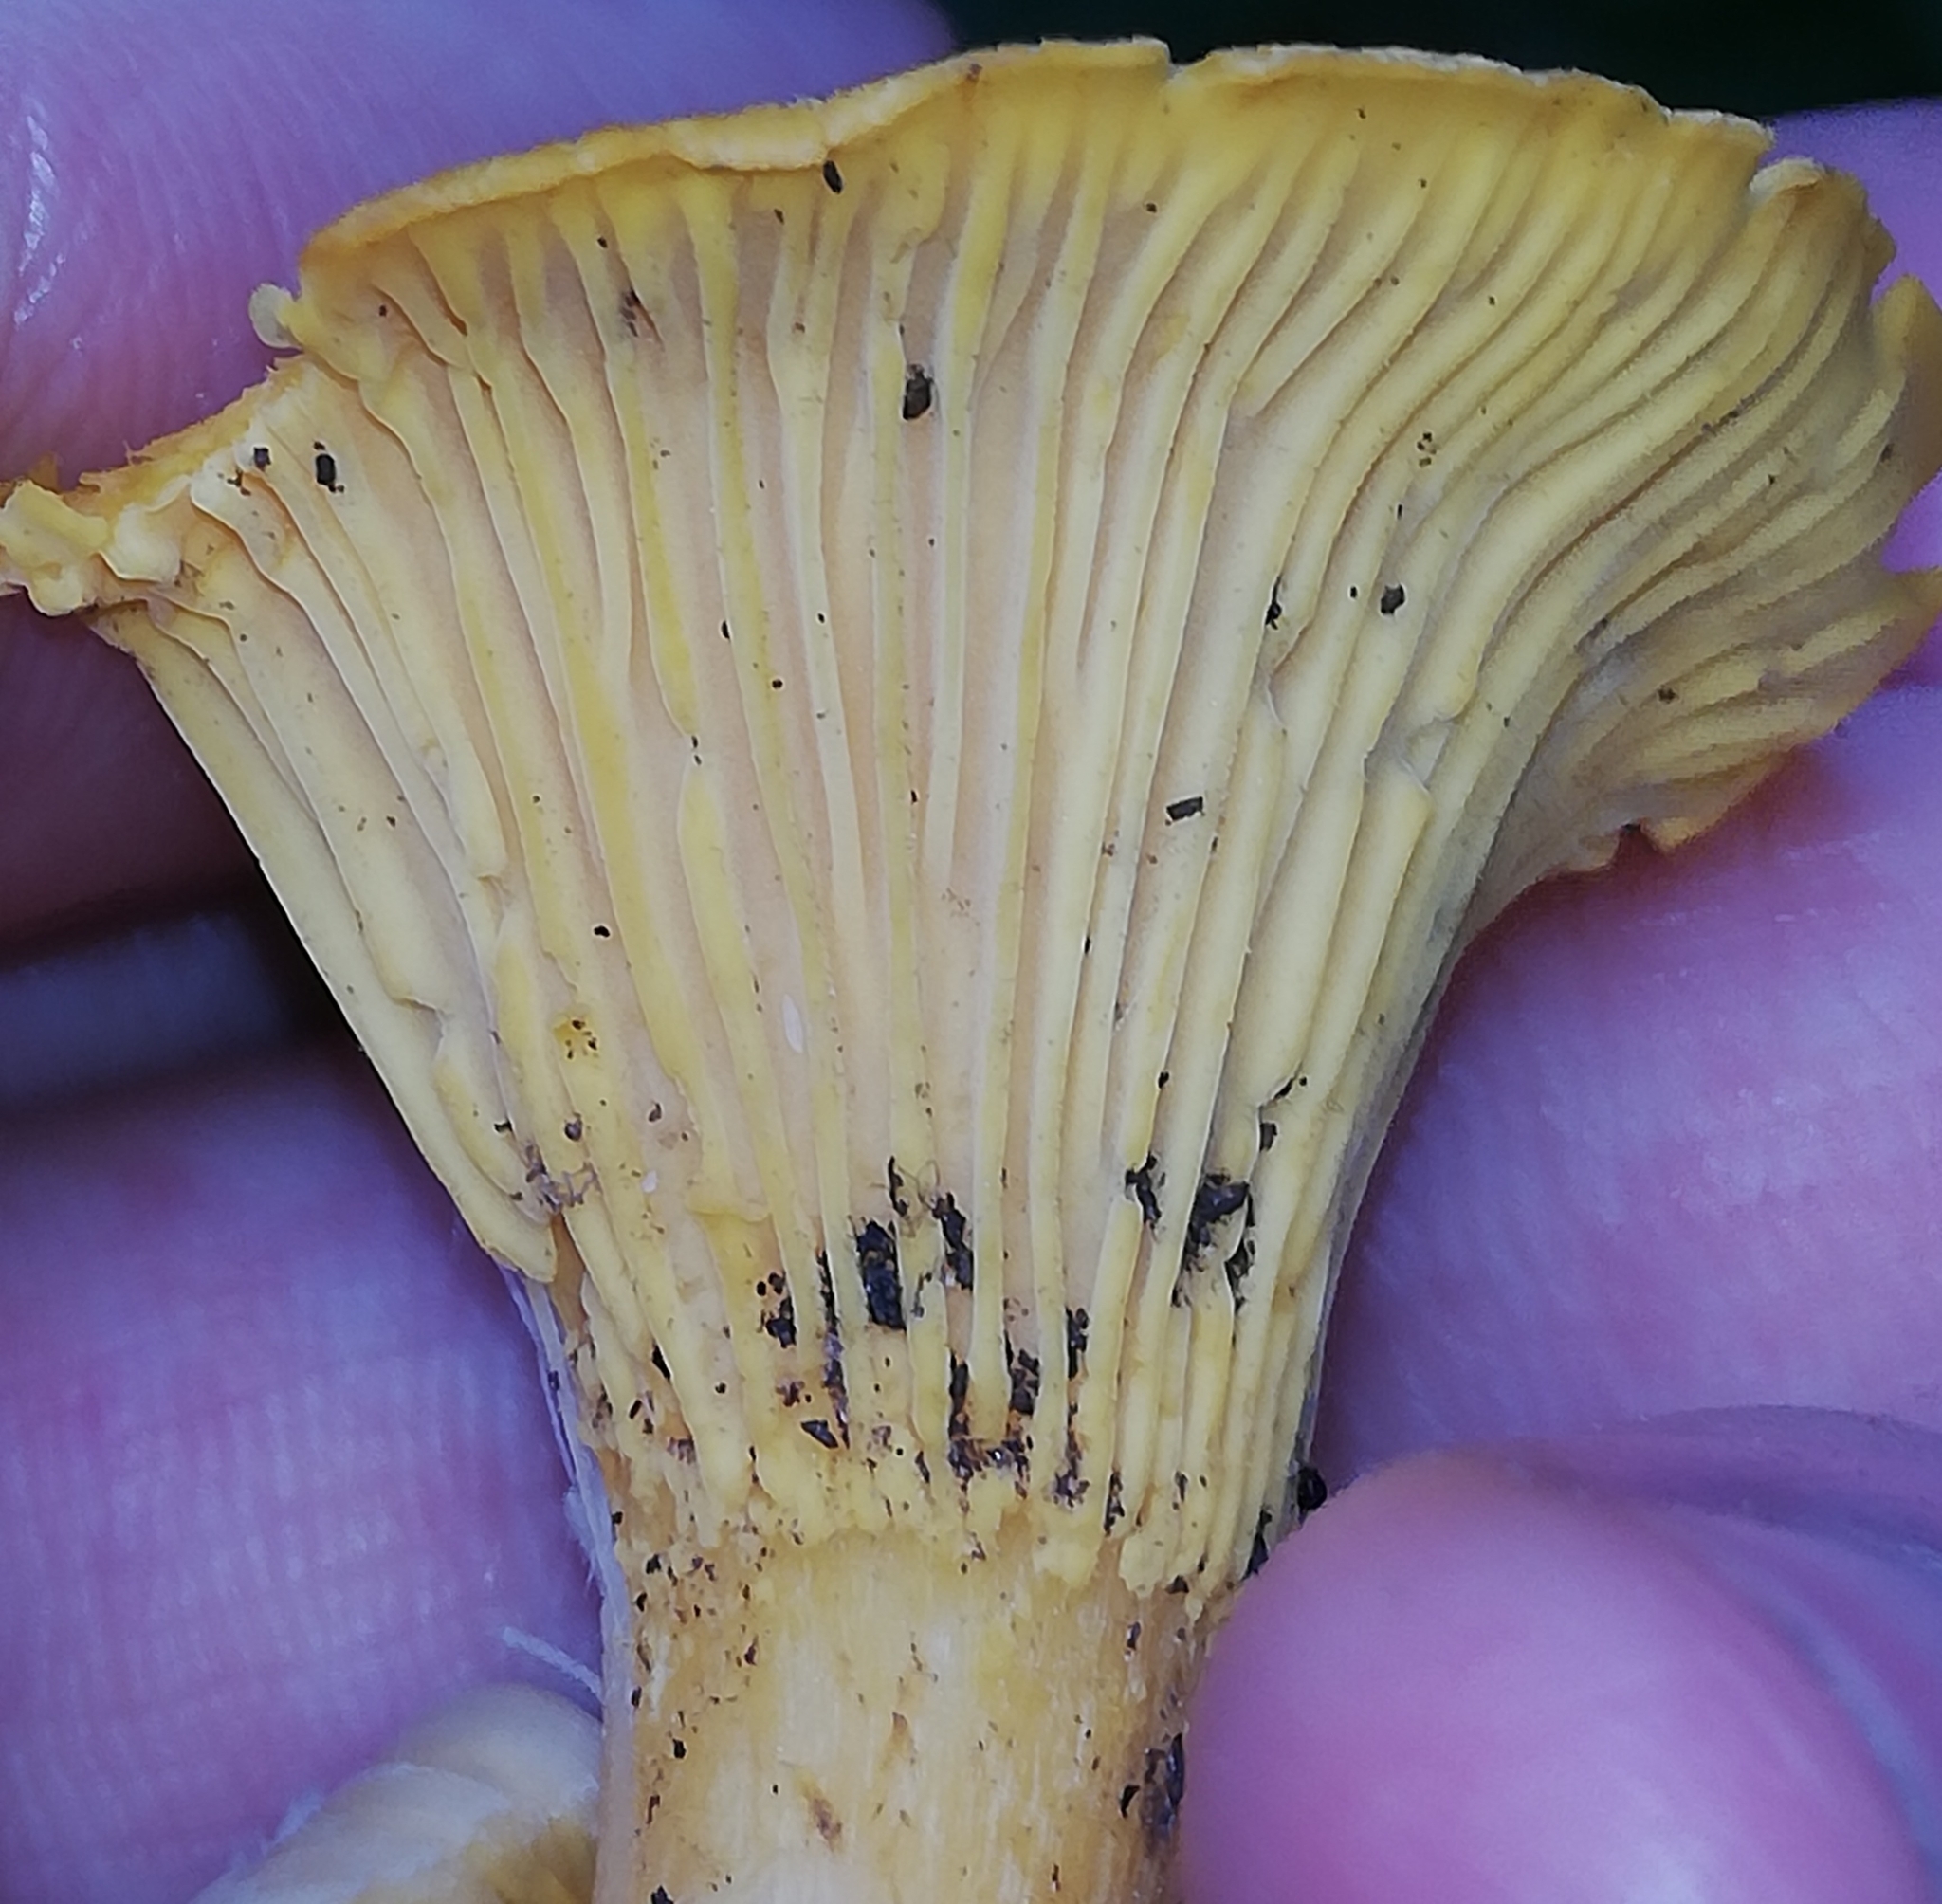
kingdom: Fungi
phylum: Basidiomycota
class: Agaricomycetes
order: Cantharellales
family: Hydnaceae
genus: Cantharellus
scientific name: Cantharellus cibarius
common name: Chanterelle
